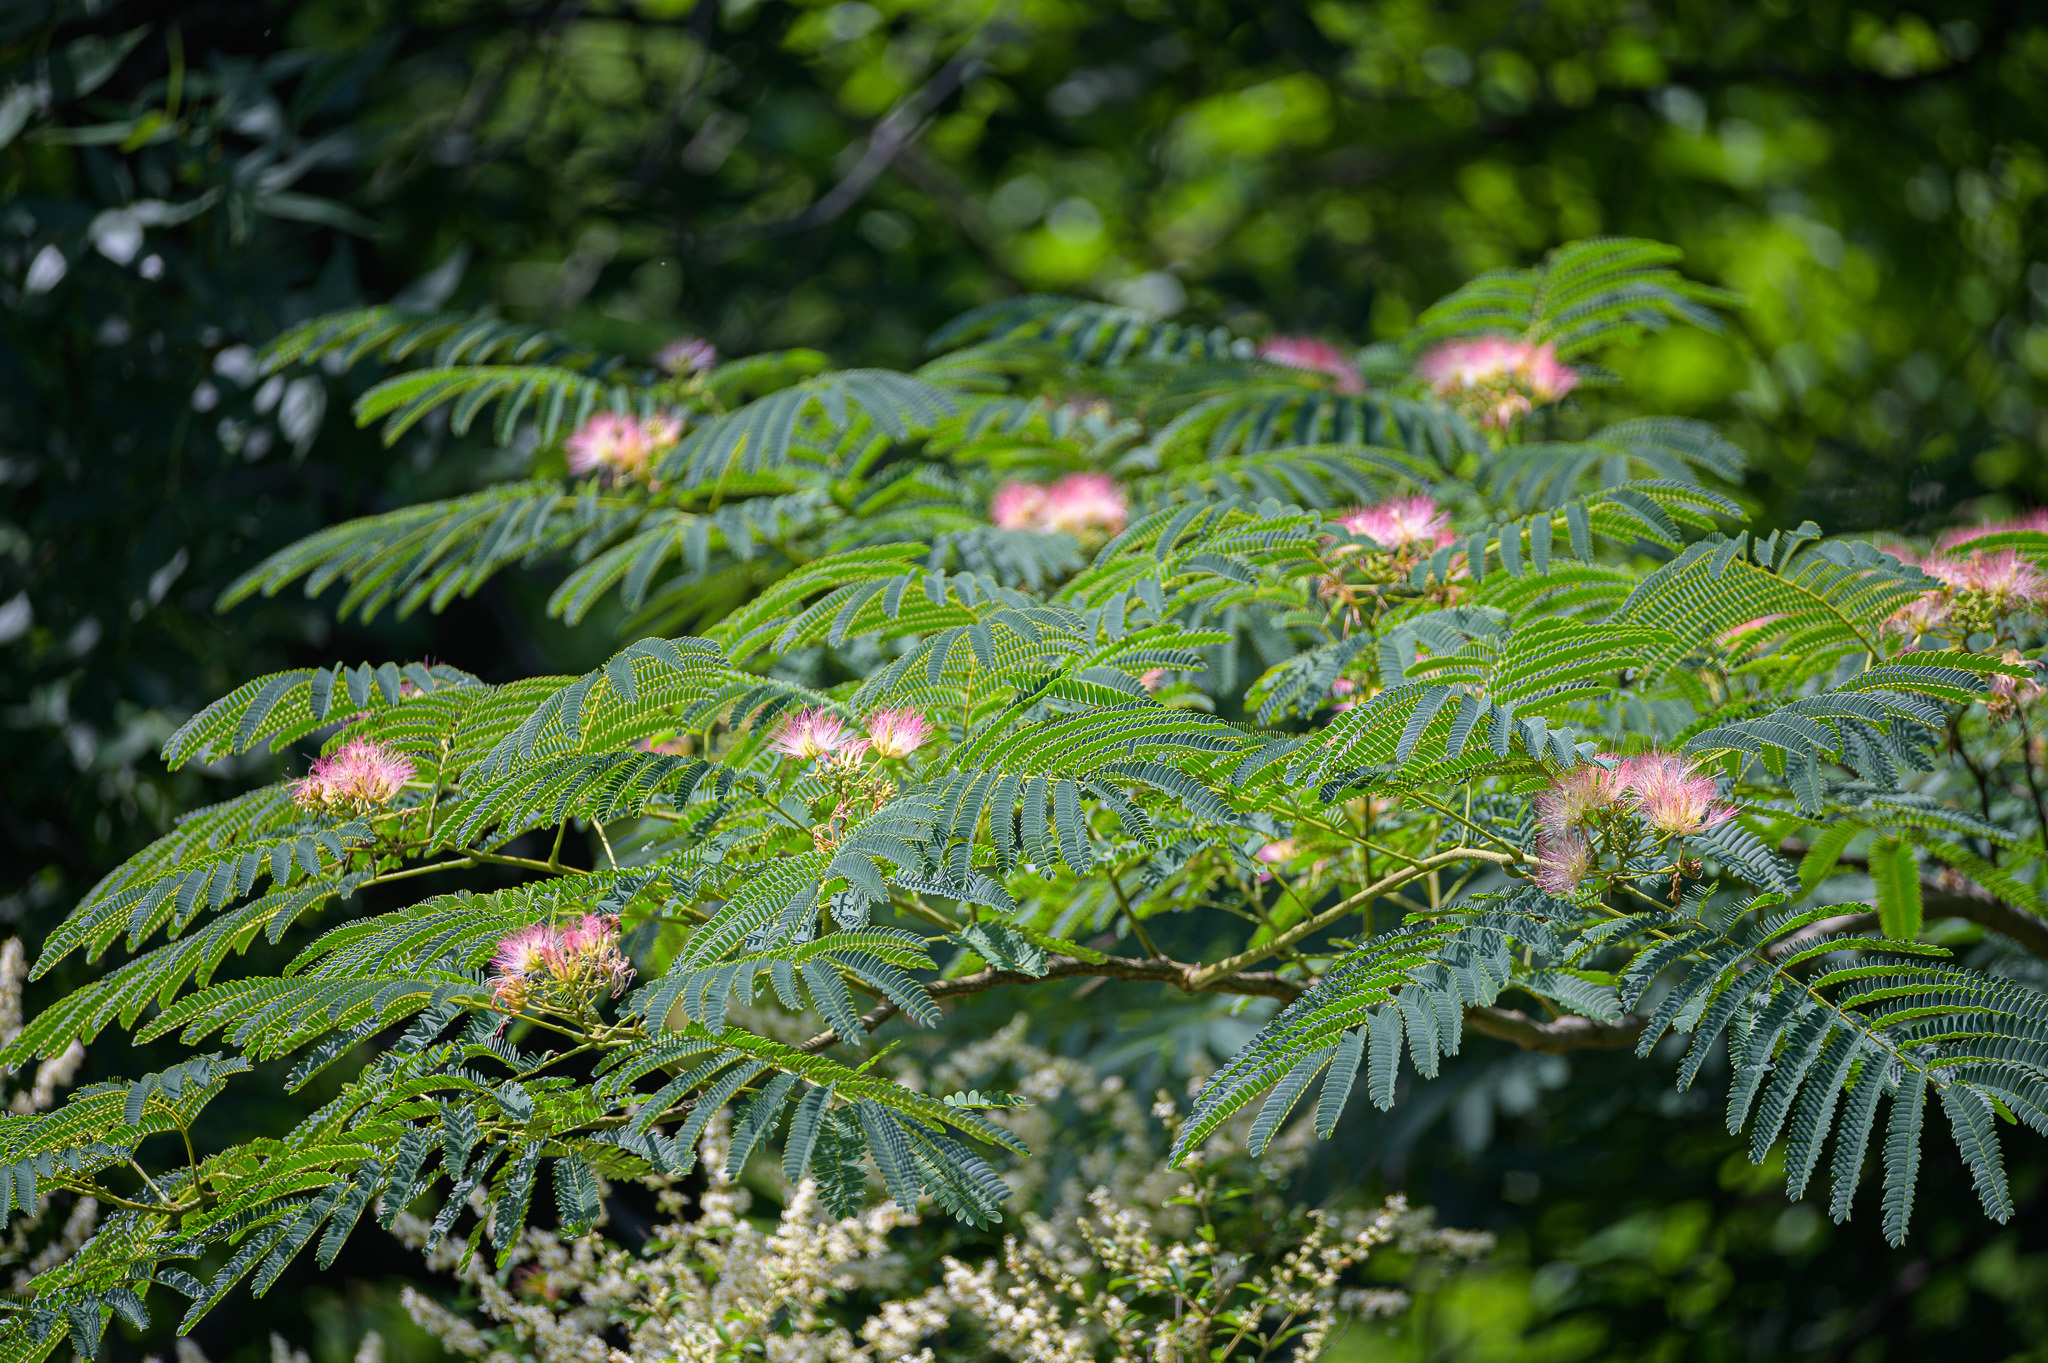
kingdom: Plantae
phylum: Tracheophyta
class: Magnoliopsida
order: Fabales
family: Fabaceae
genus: Albizia
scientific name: Albizia julibrissin
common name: Silktree
